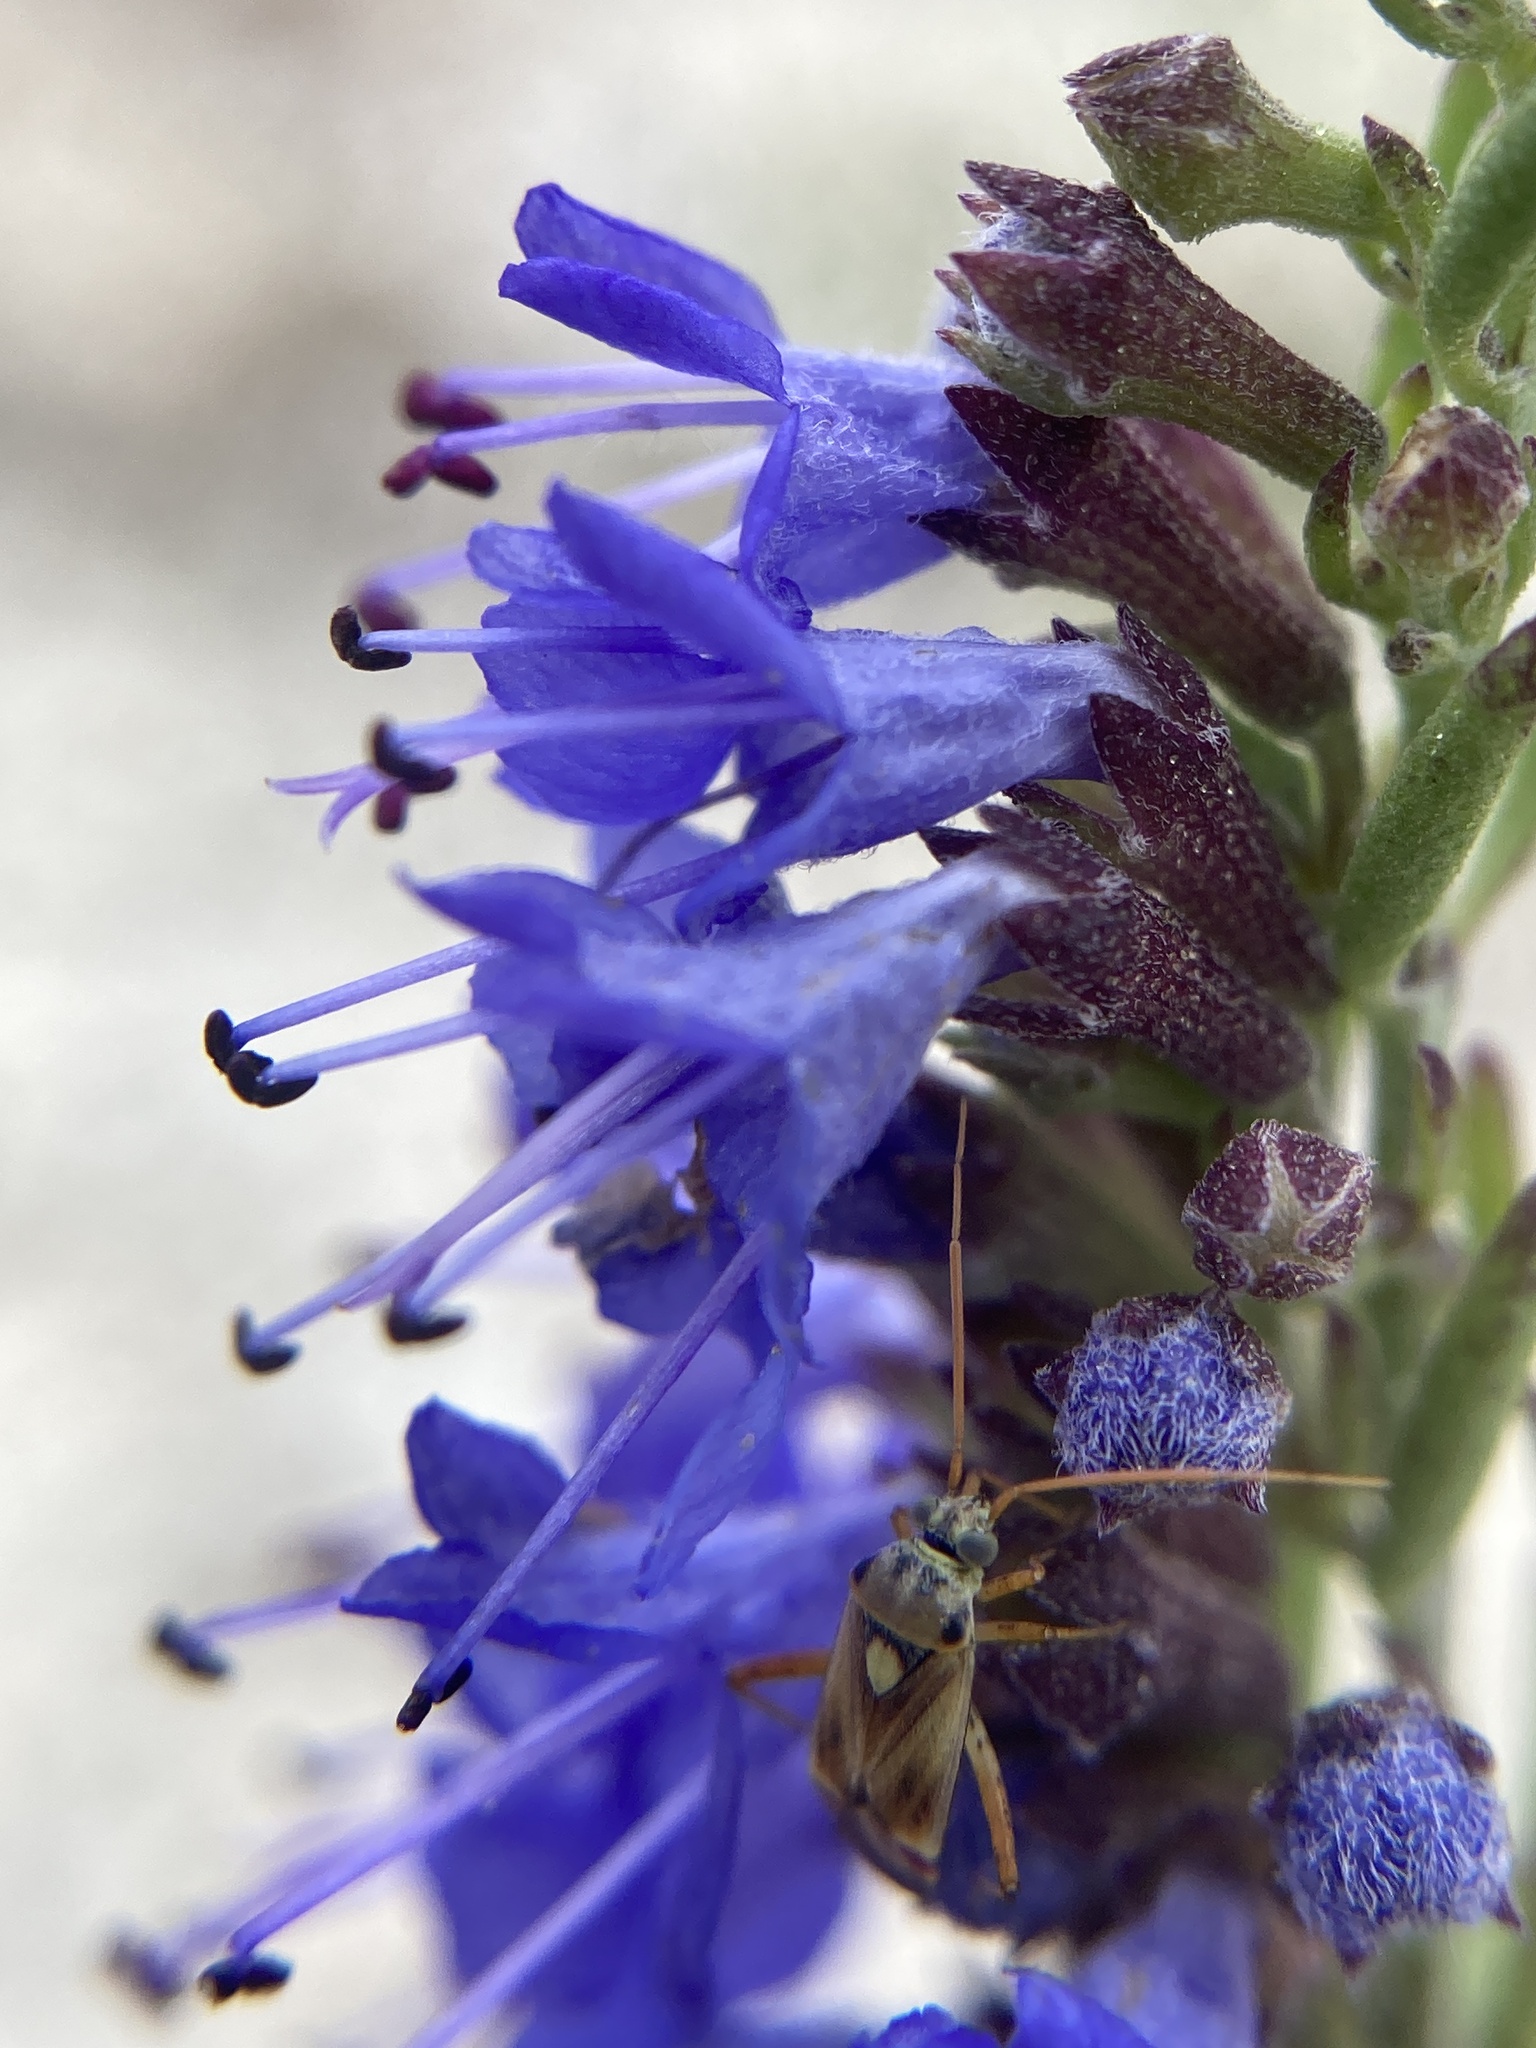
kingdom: Plantae
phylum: Tracheophyta
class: Magnoliopsida
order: Lamiales
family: Lamiaceae
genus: Hyssopus
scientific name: Hyssopus officinalis
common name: Hyssop
